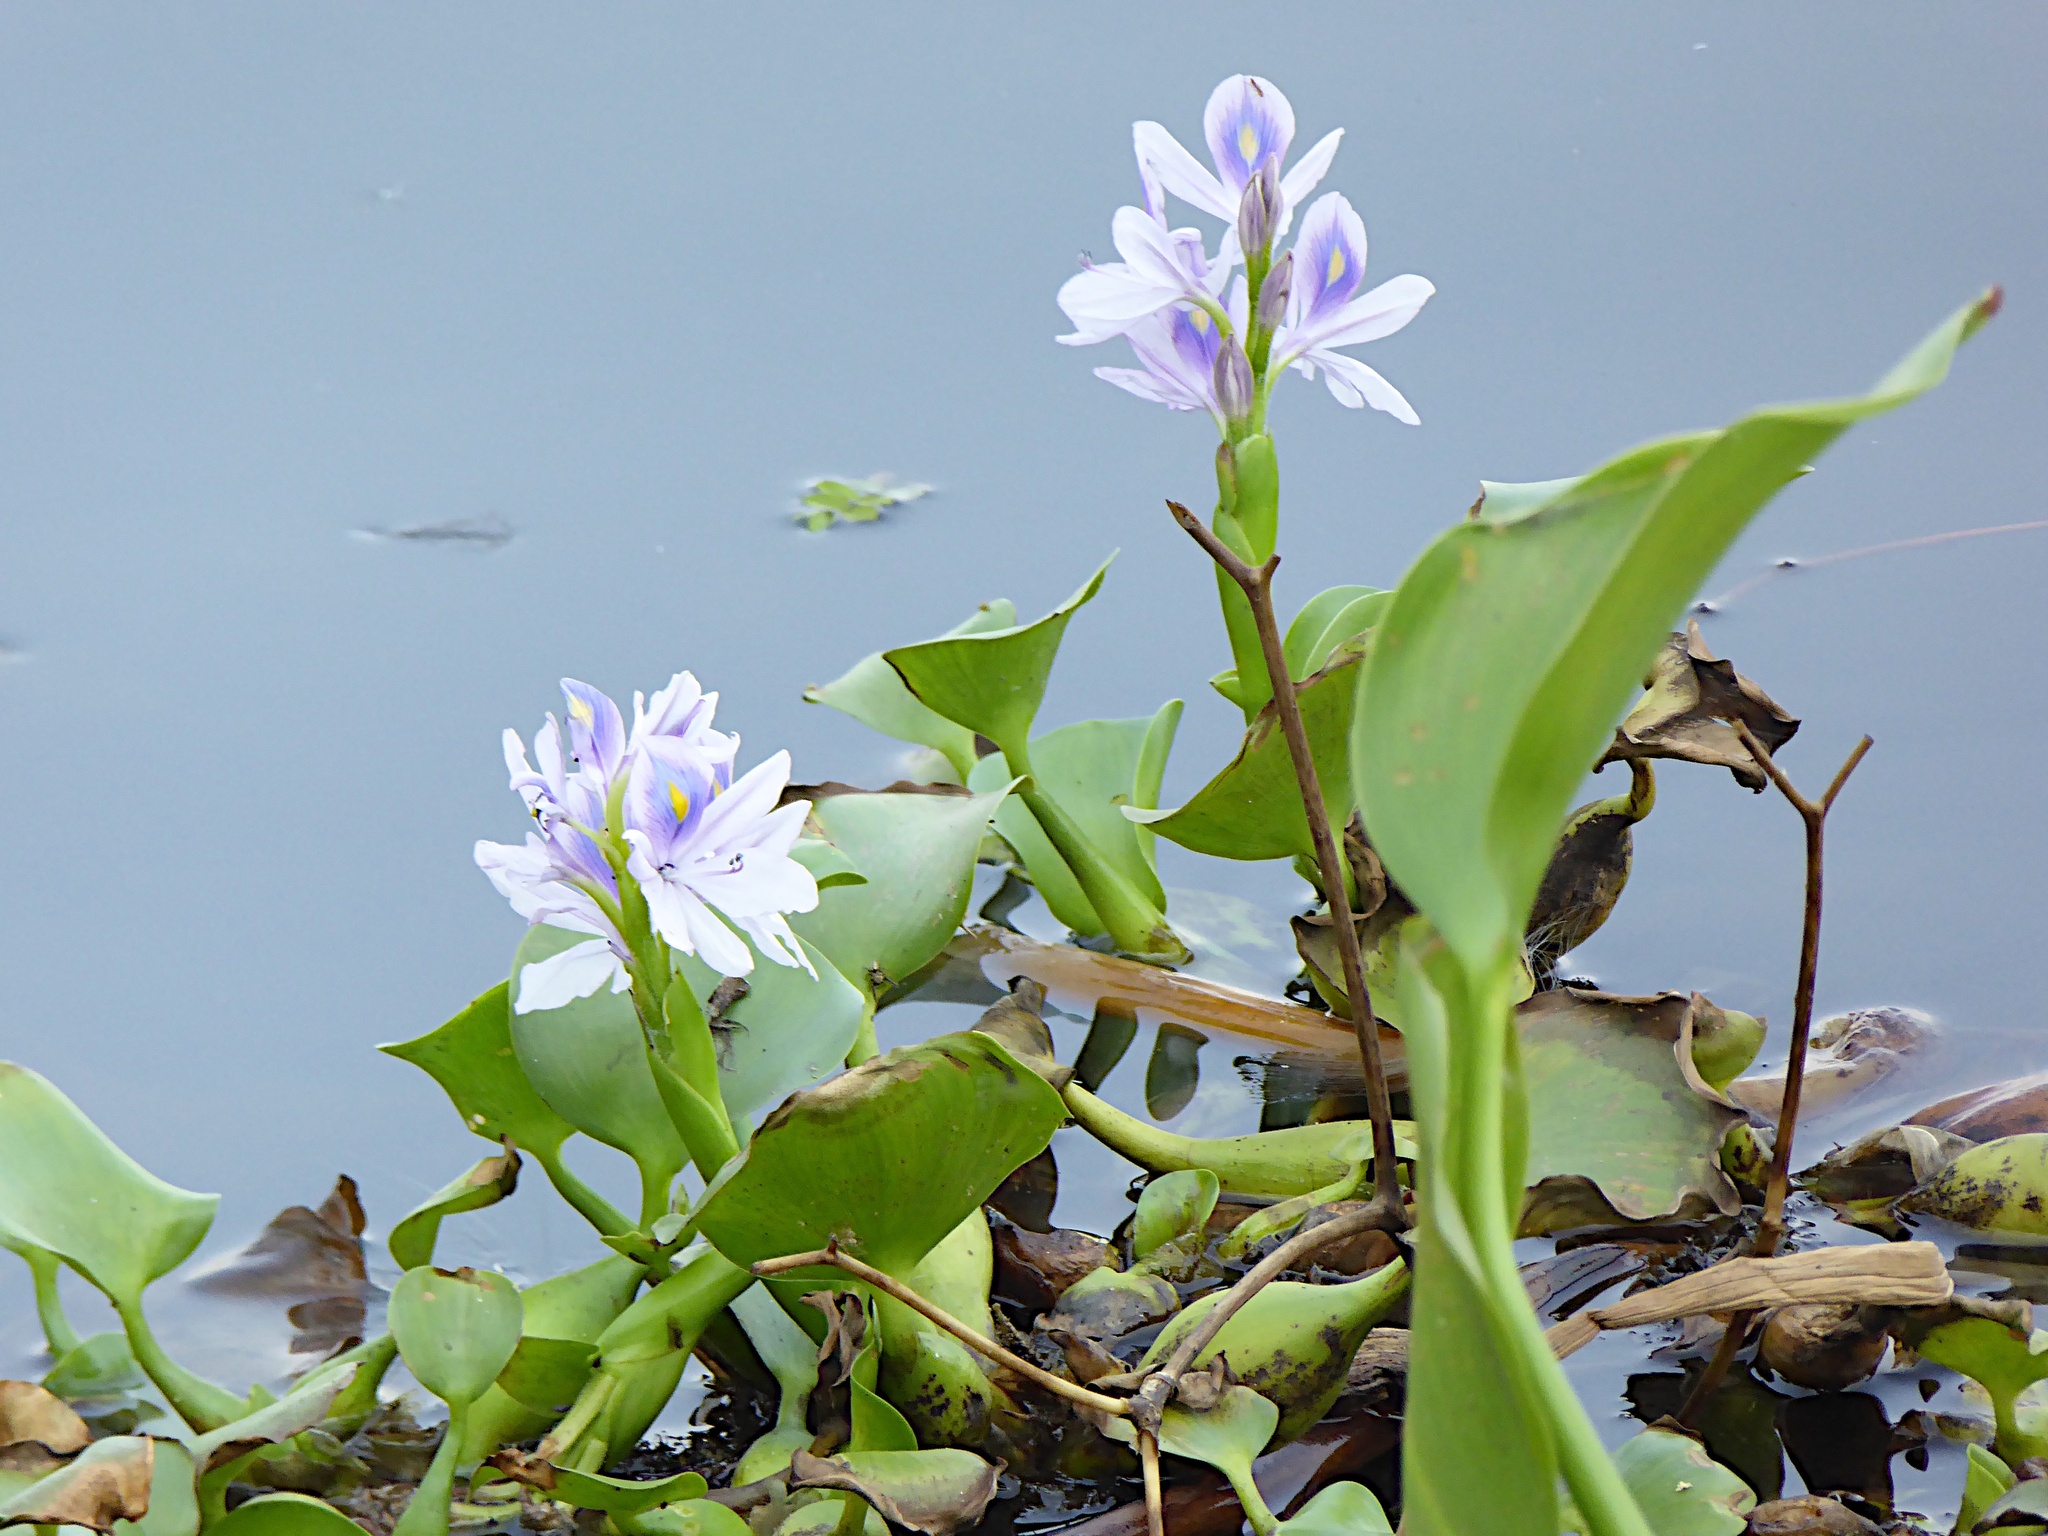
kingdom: Plantae
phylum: Tracheophyta
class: Liliopsida
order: Commelinales
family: Pontederiaceae
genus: Pontederia
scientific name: Pontederia crassipes
